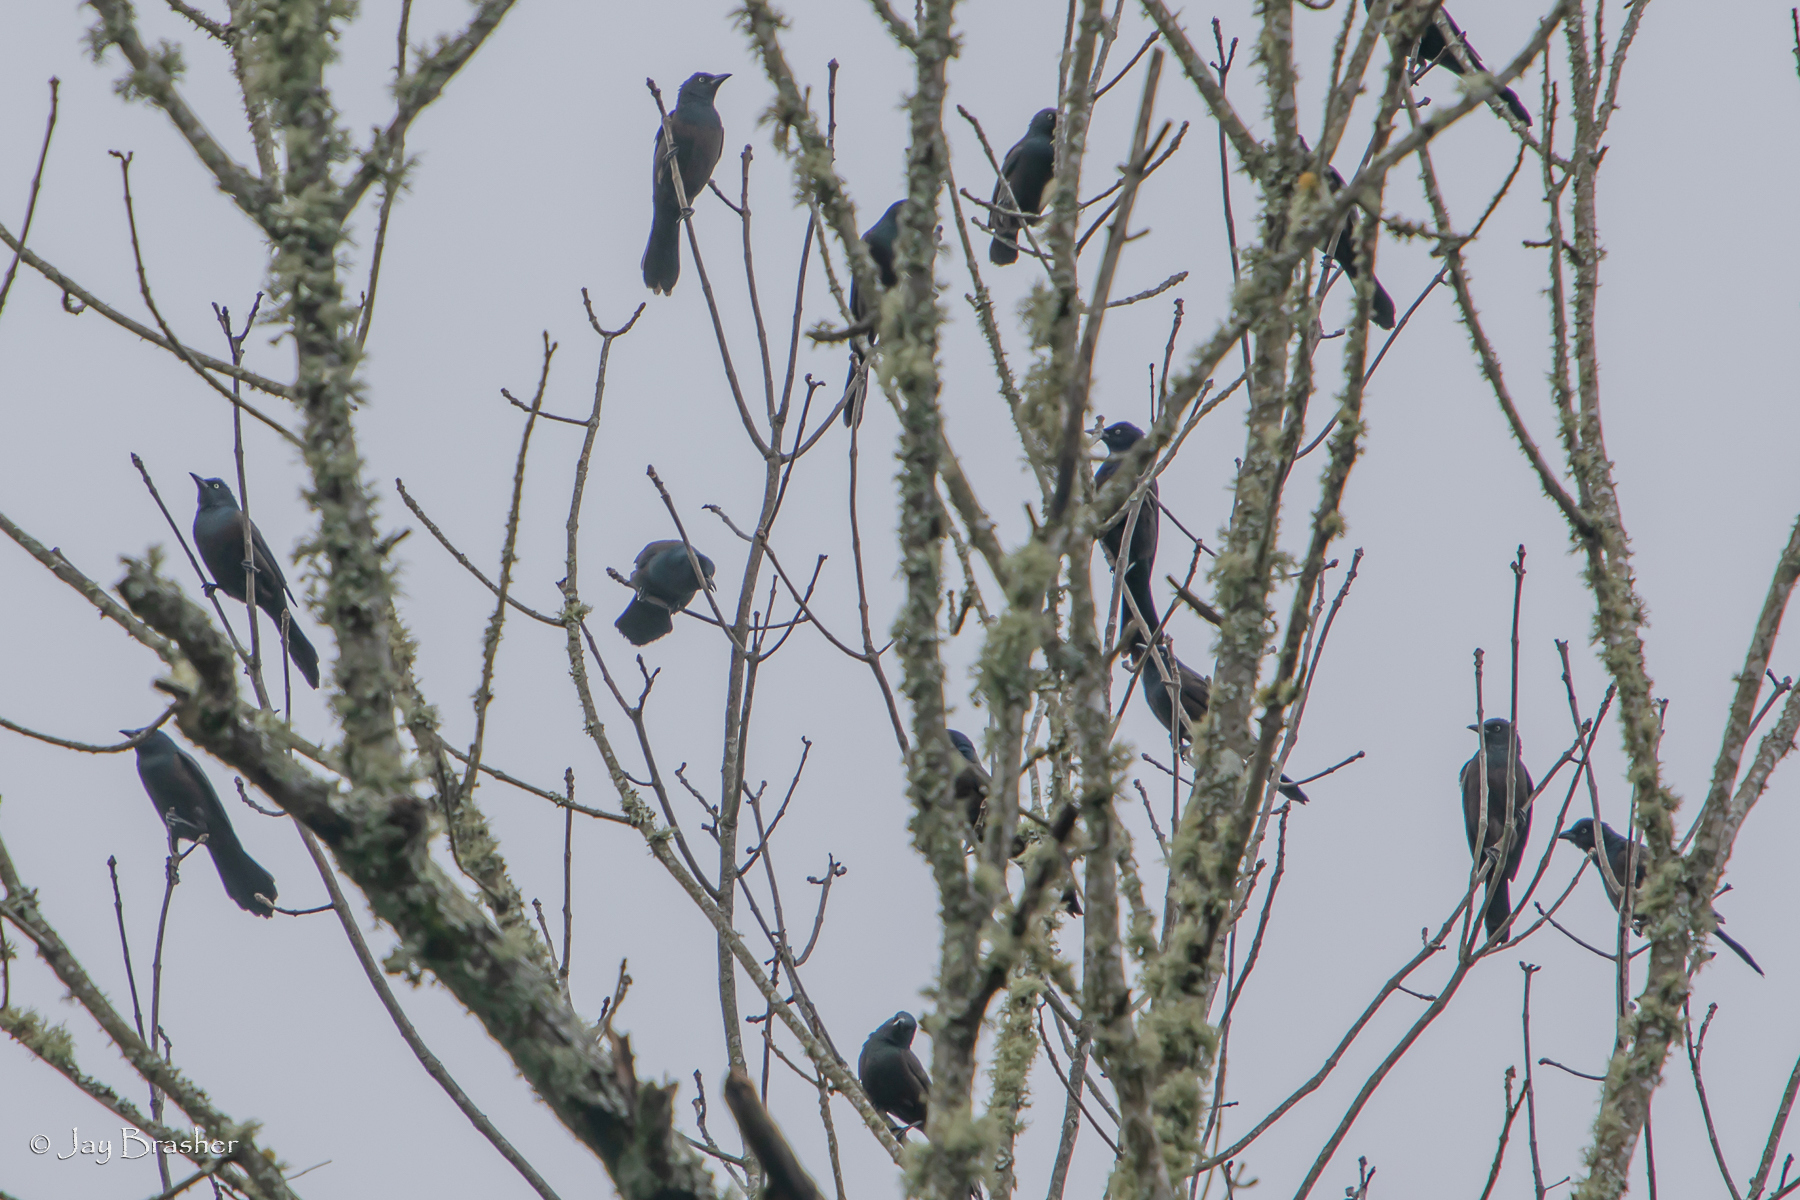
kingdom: Animalia
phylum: Chordata
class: Aves
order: Passeriformes
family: Icteridae
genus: Quiscalus
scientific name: Quiscalus quiscula
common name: Common grackle
